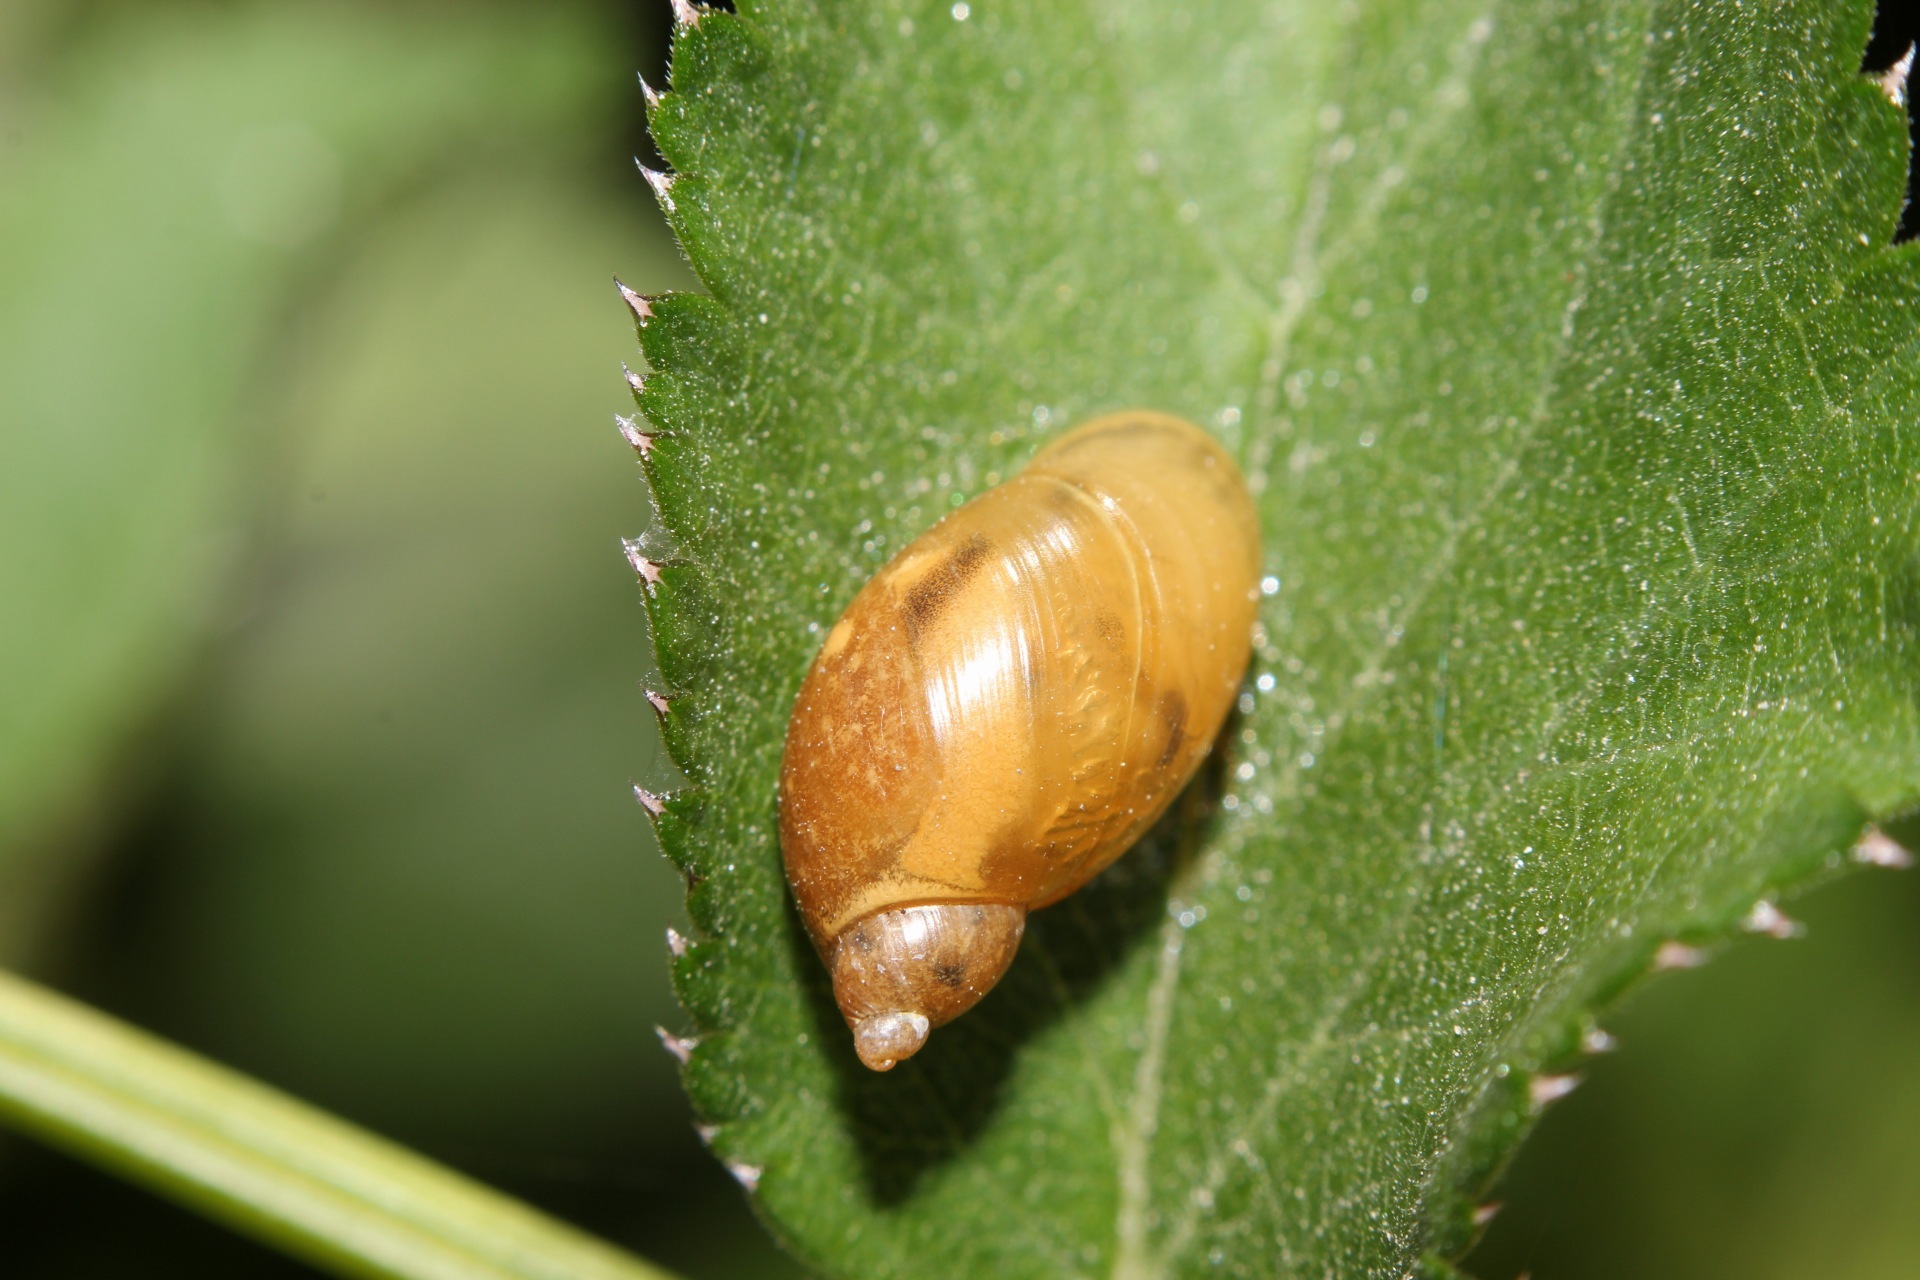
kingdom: Animalia
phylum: Mollusca
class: Gastropoda
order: Stylommatophora
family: Succineidae
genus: Succinea
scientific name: Succinea putris
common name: European ambersnail
